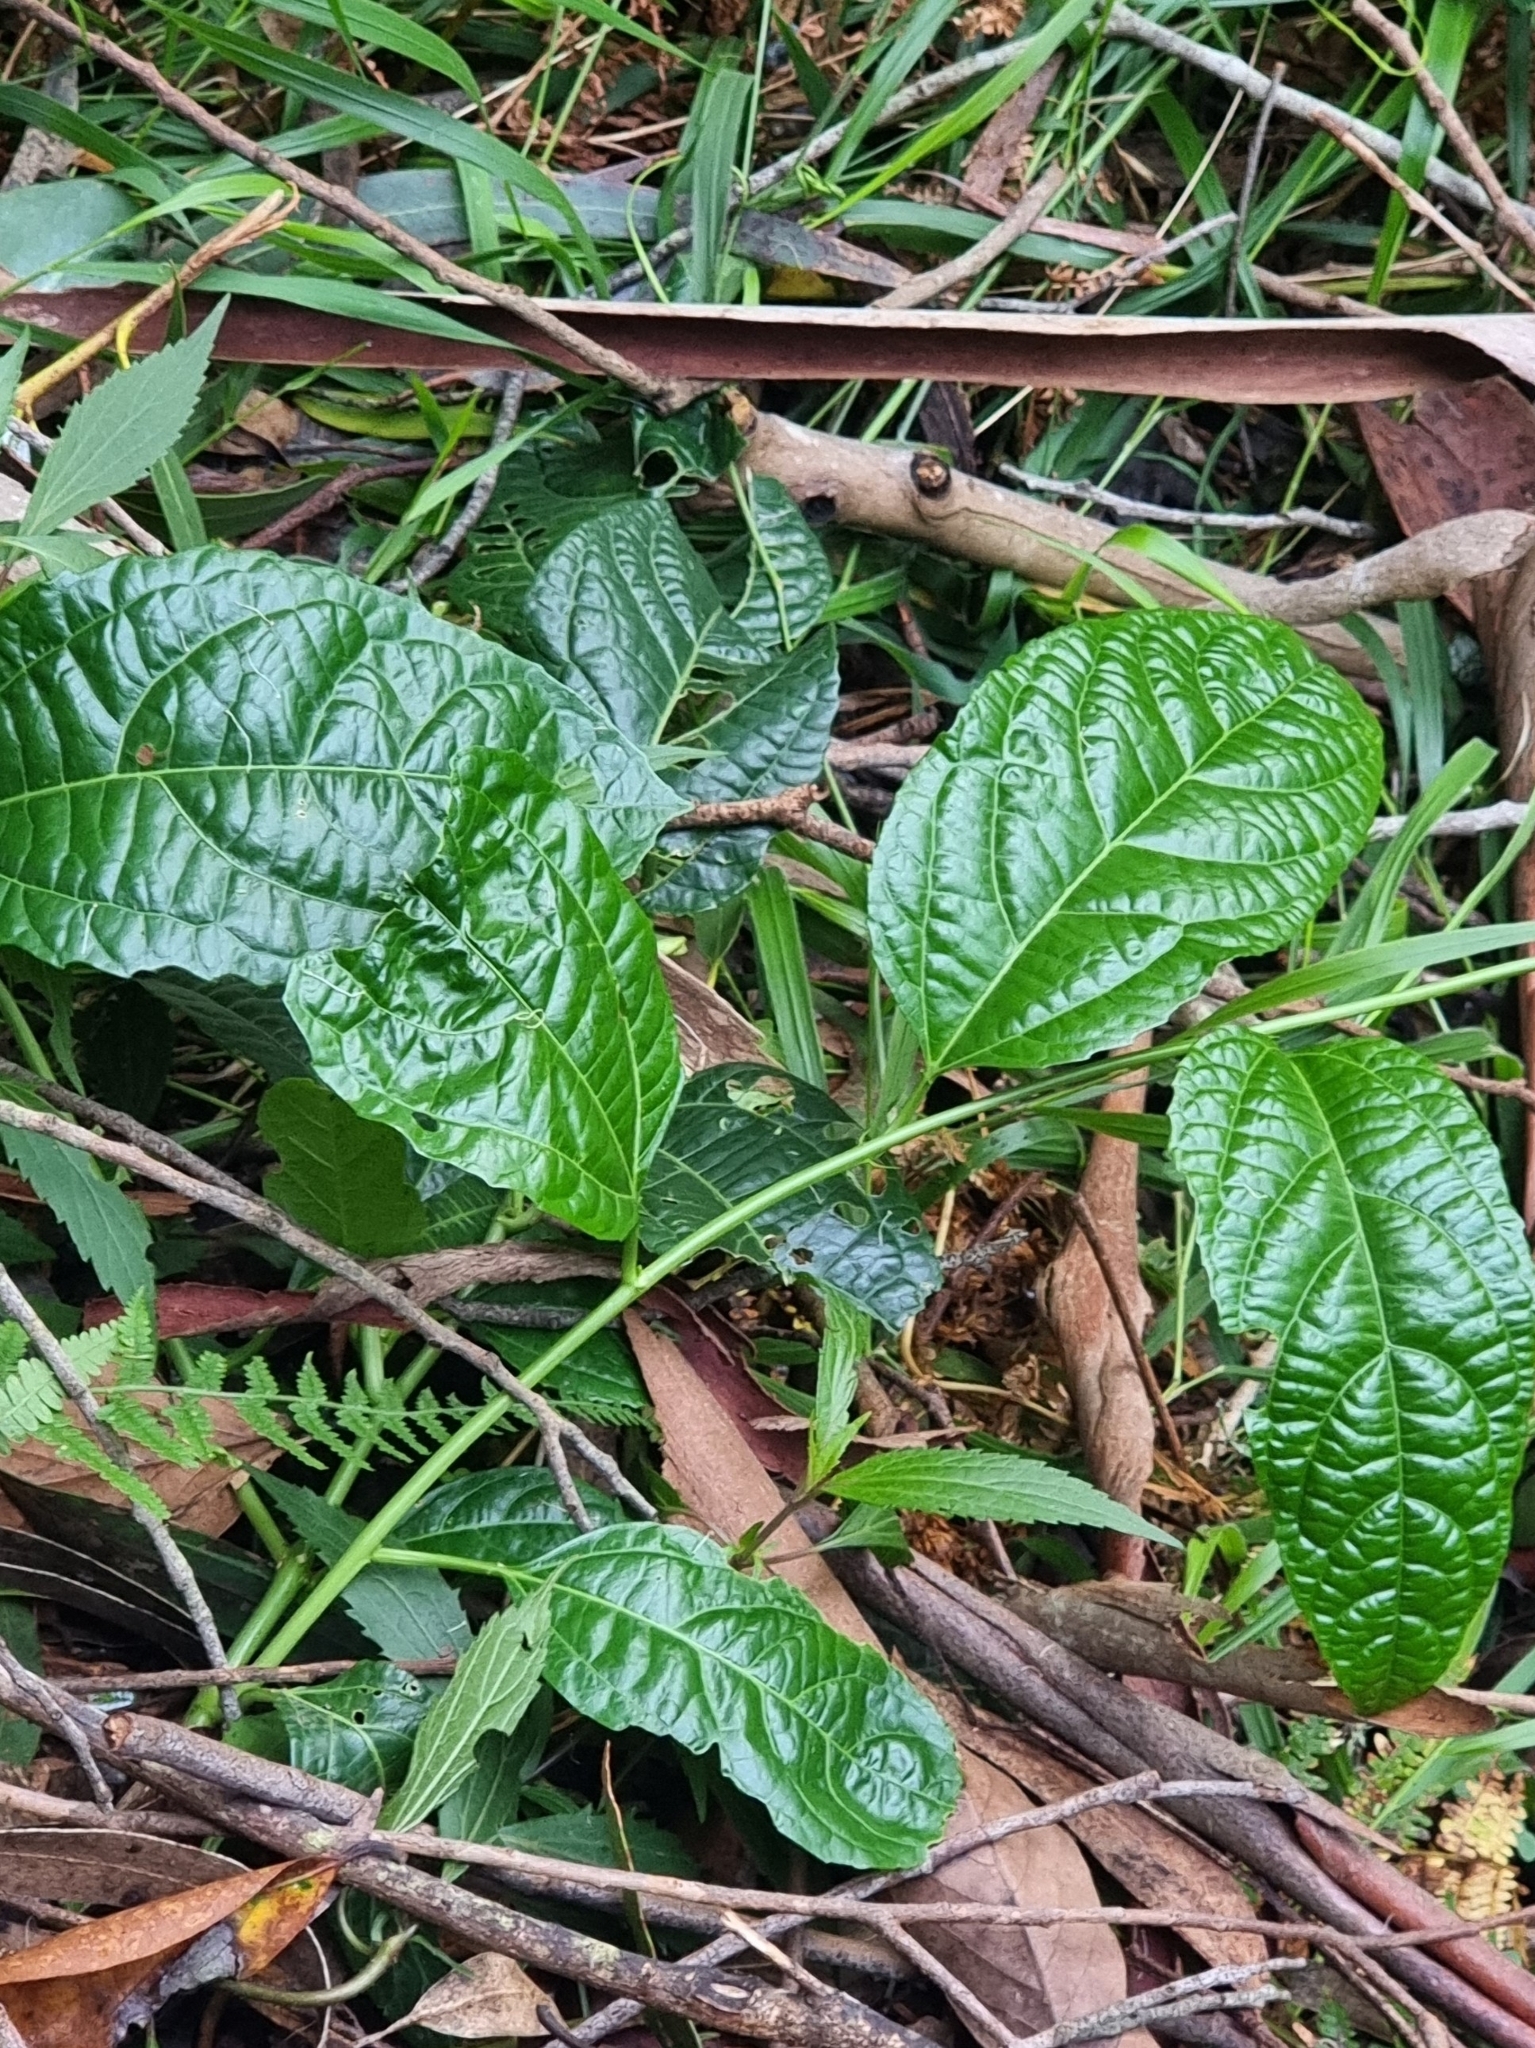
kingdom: Plantae
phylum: Tracheophyta
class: Magnoliopsida
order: Malpighiales
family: Passifloraceae
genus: Passiflora
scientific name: Passiflora edulis
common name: Purple granadilla
